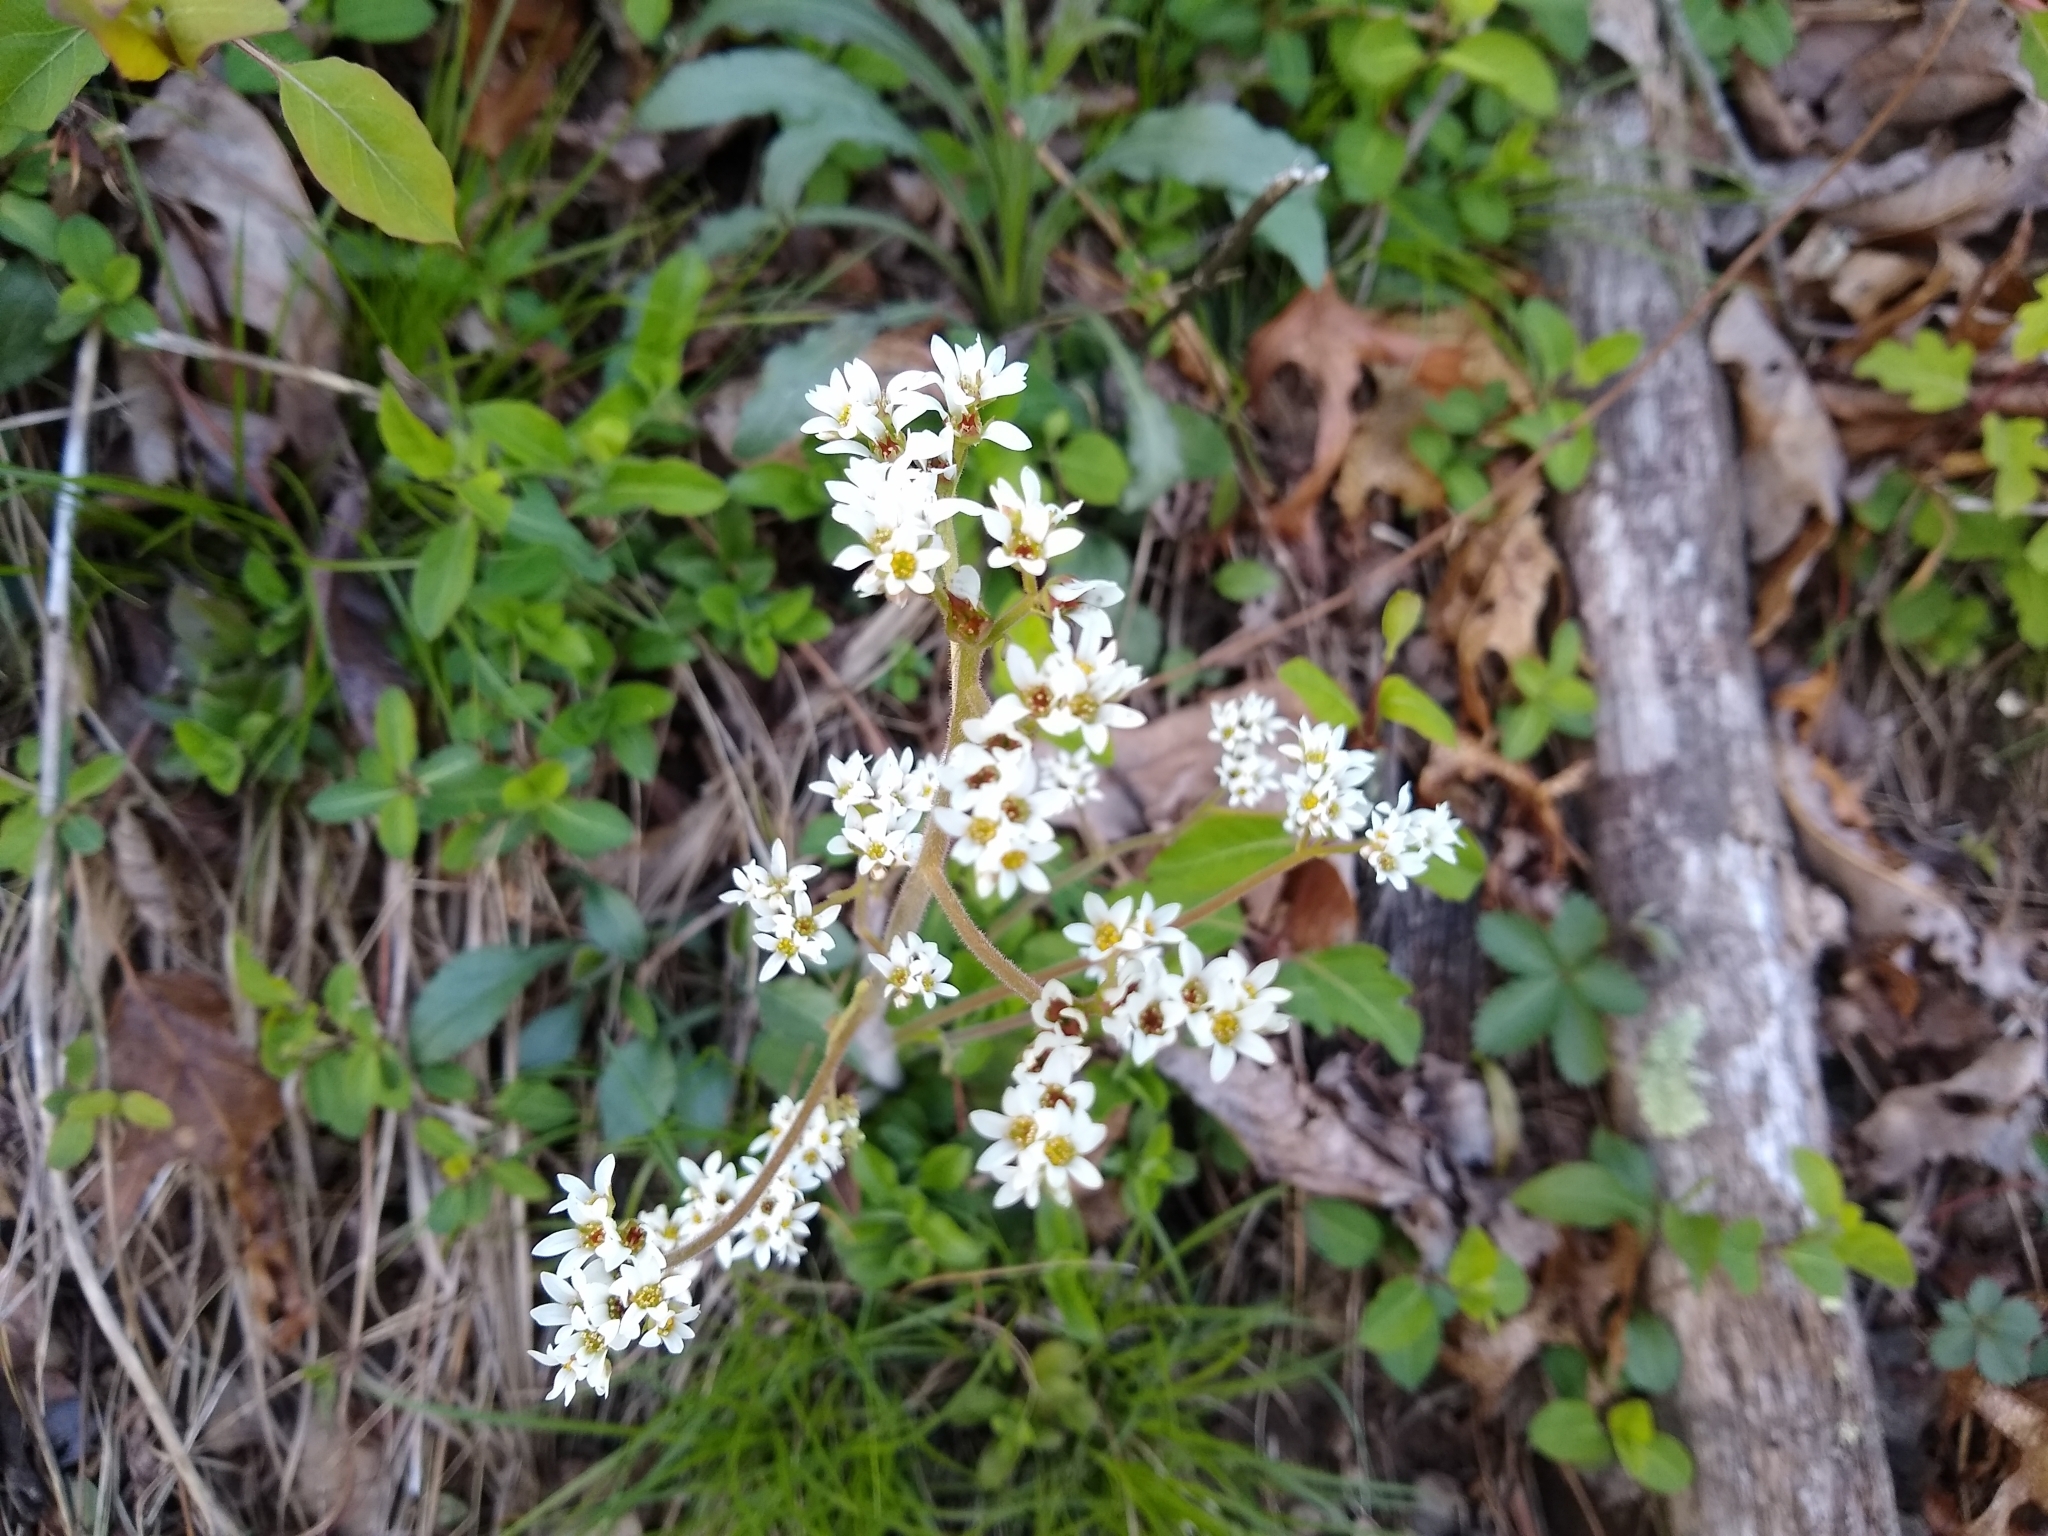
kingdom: Plantae
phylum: Tracheophyta
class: Magnoliopsida
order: Saxifragales
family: Saxifragaceae
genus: Micranthes
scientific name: Micranthes virginiensis
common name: Early saxifrage
